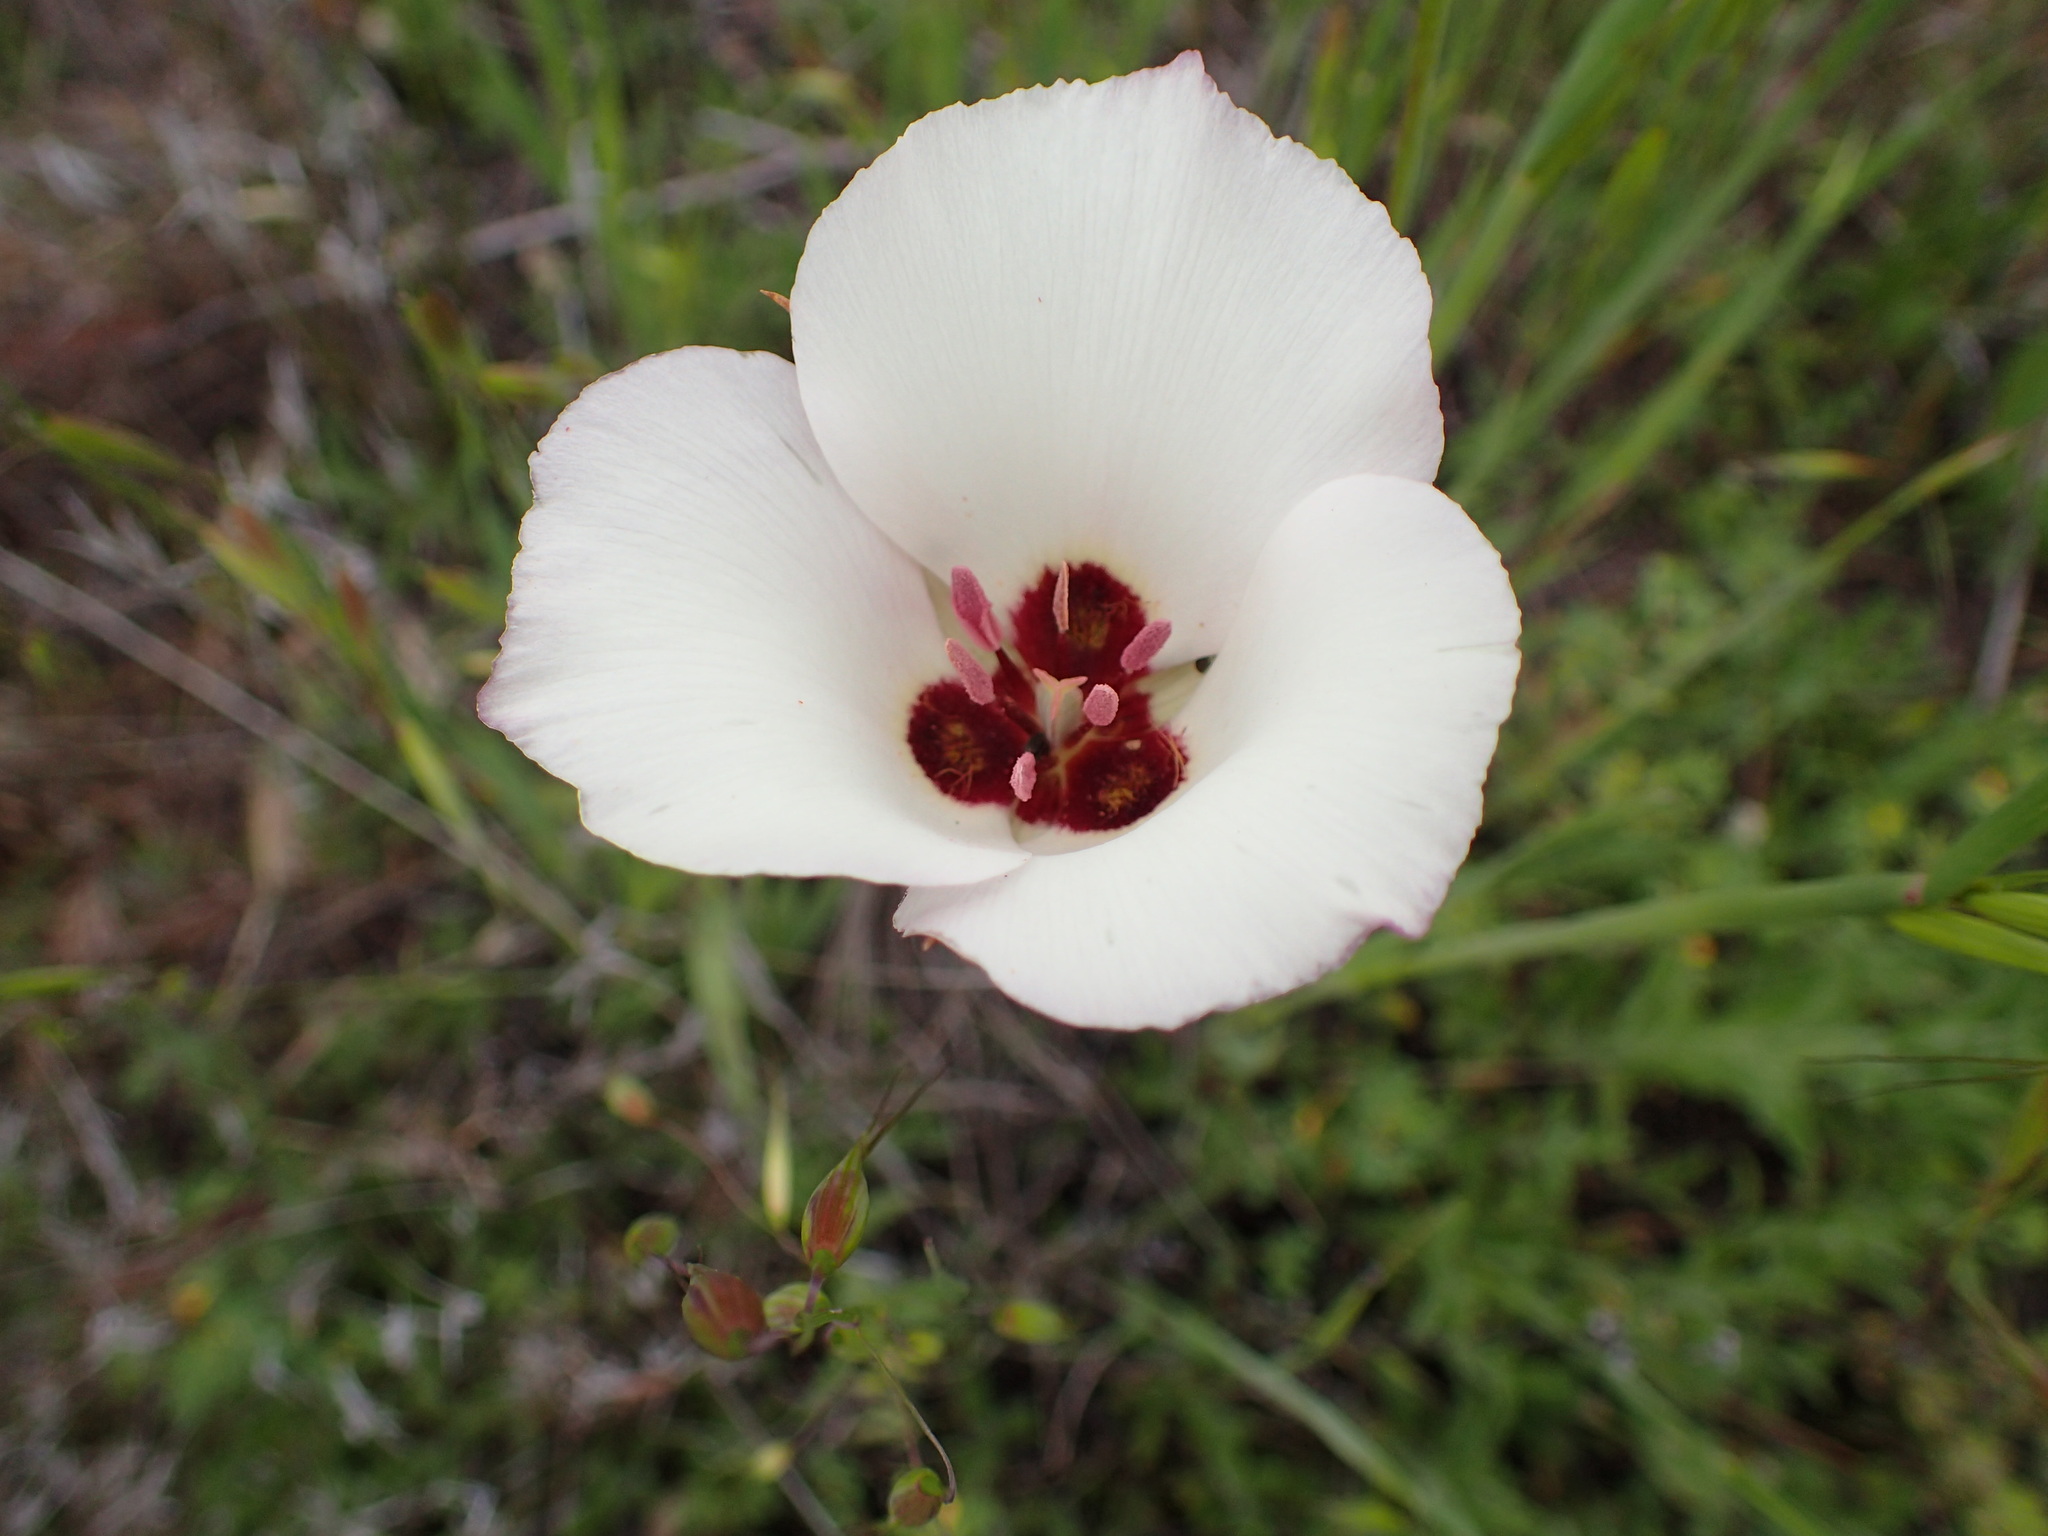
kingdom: Plantae
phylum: Tracheophyta
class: Liliopsida
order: Liliales
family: Liliaceae
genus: Calochortus
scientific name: Calochortus catalinae
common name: Catalina mariposa-lily
